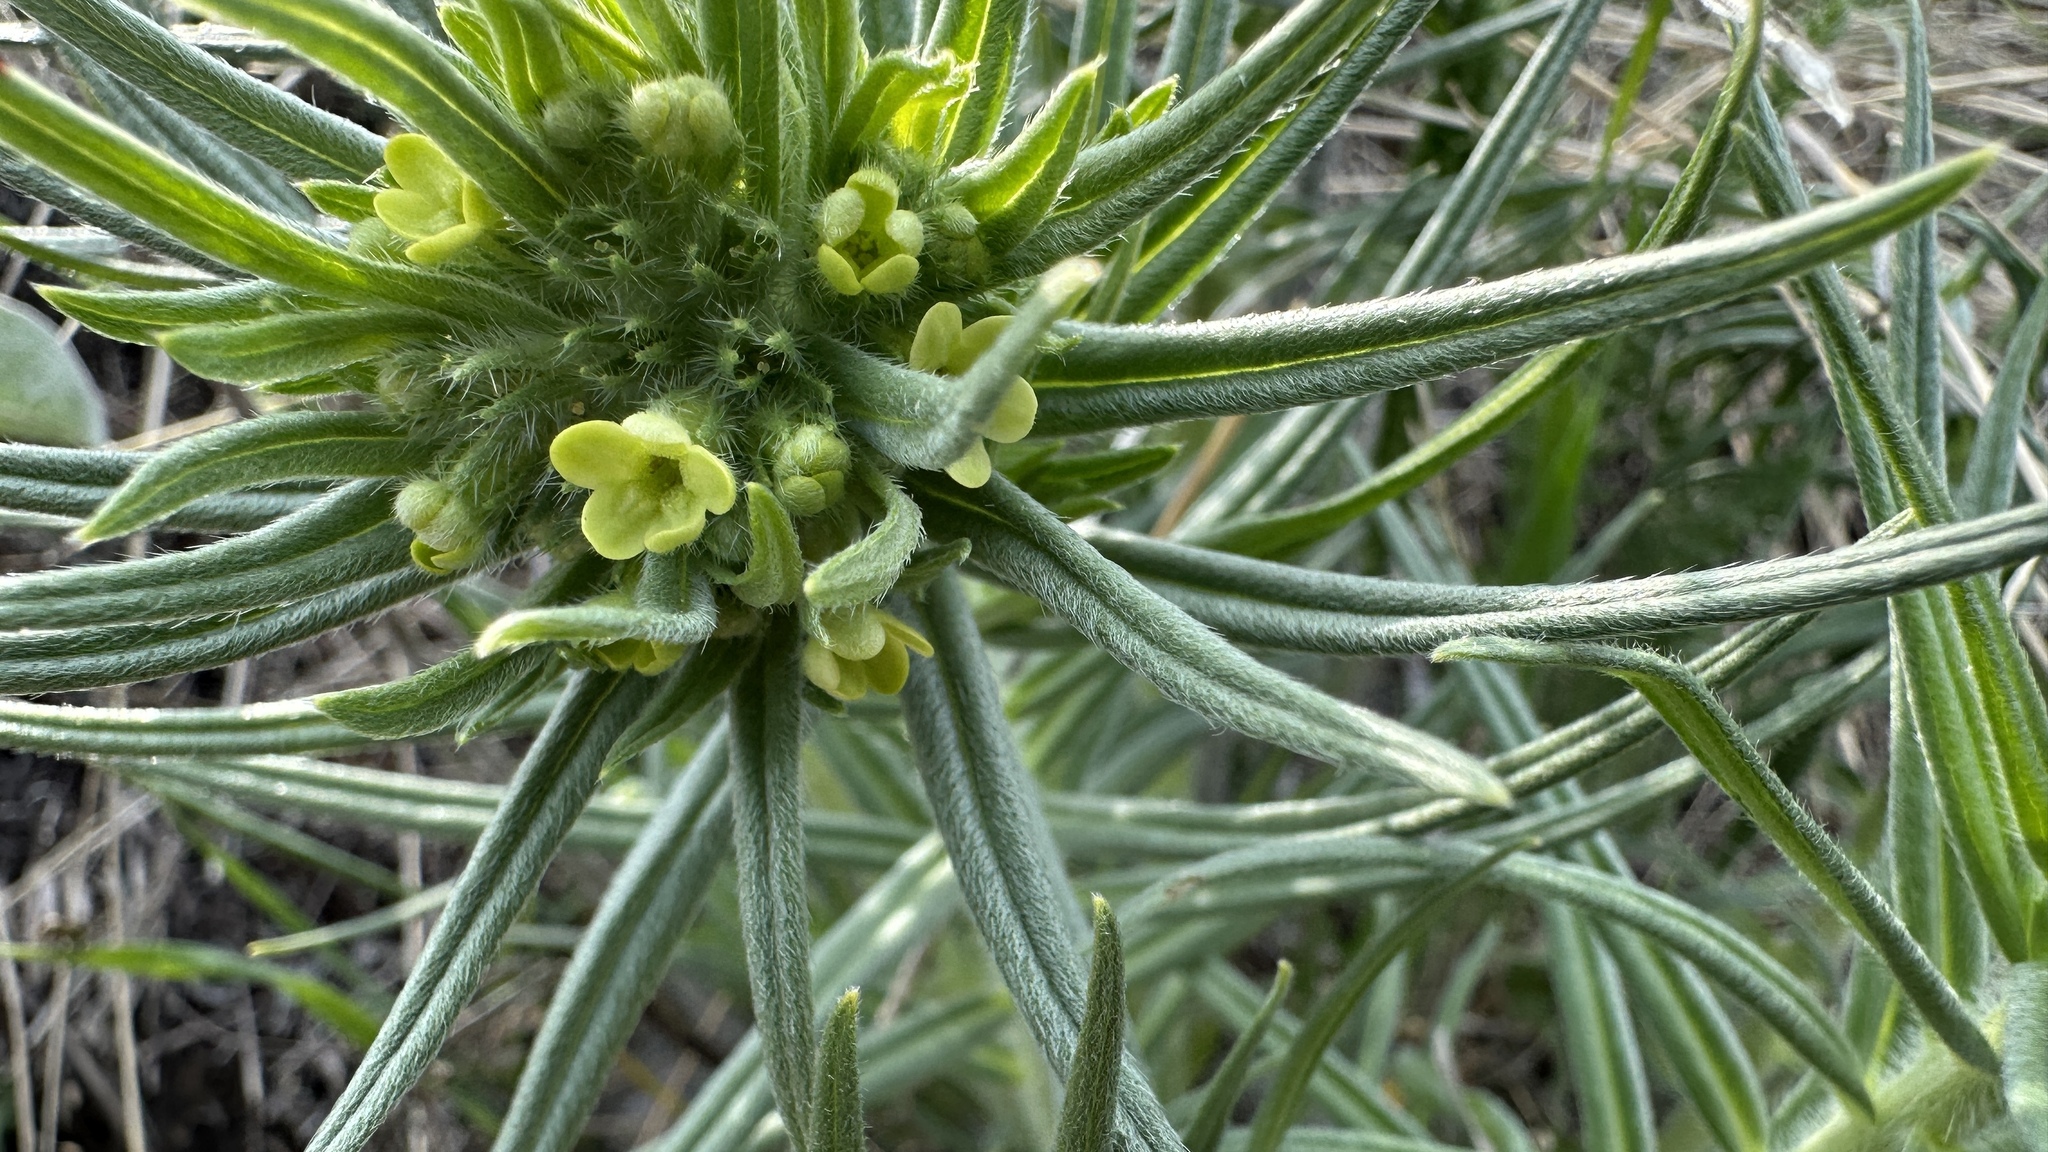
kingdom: Plantae
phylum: Tracheophyta
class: Magnoliopsida
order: Boraginales
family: Boraginaceae
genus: Lithospermum
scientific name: Lithospermum ruderale
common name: Western gromwell
